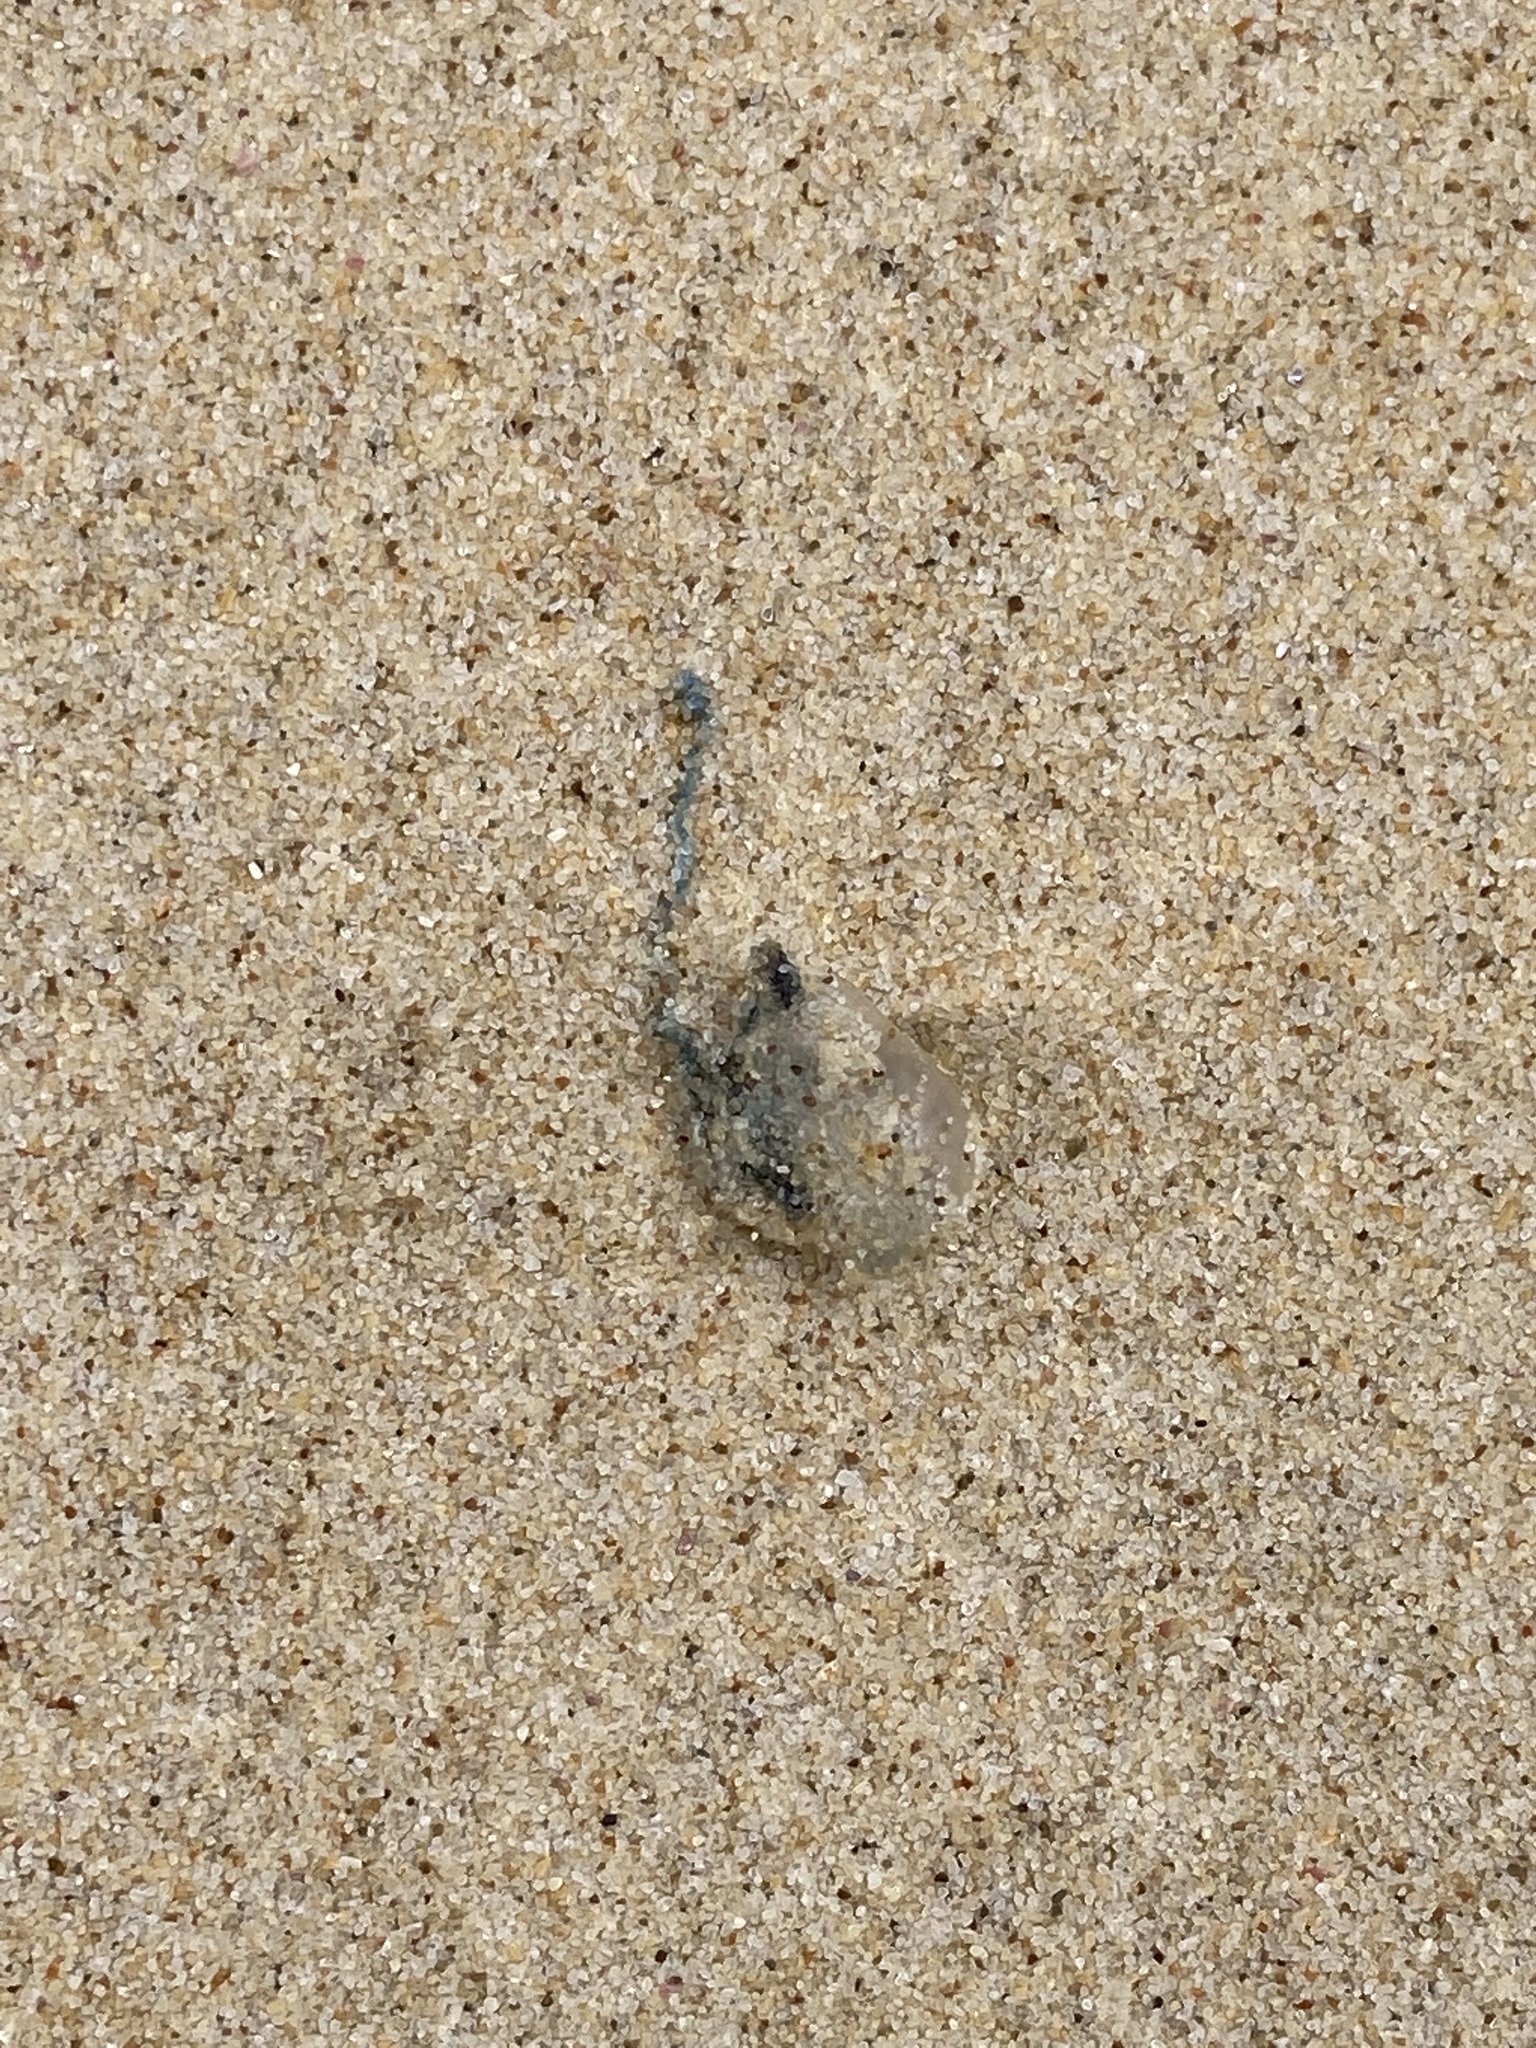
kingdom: Animalia
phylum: Cnidaria
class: Hydrozoa
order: Siphonophorae
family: Physaliidae
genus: Physalia
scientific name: Physalia physalis
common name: Portuguese man-of-war
